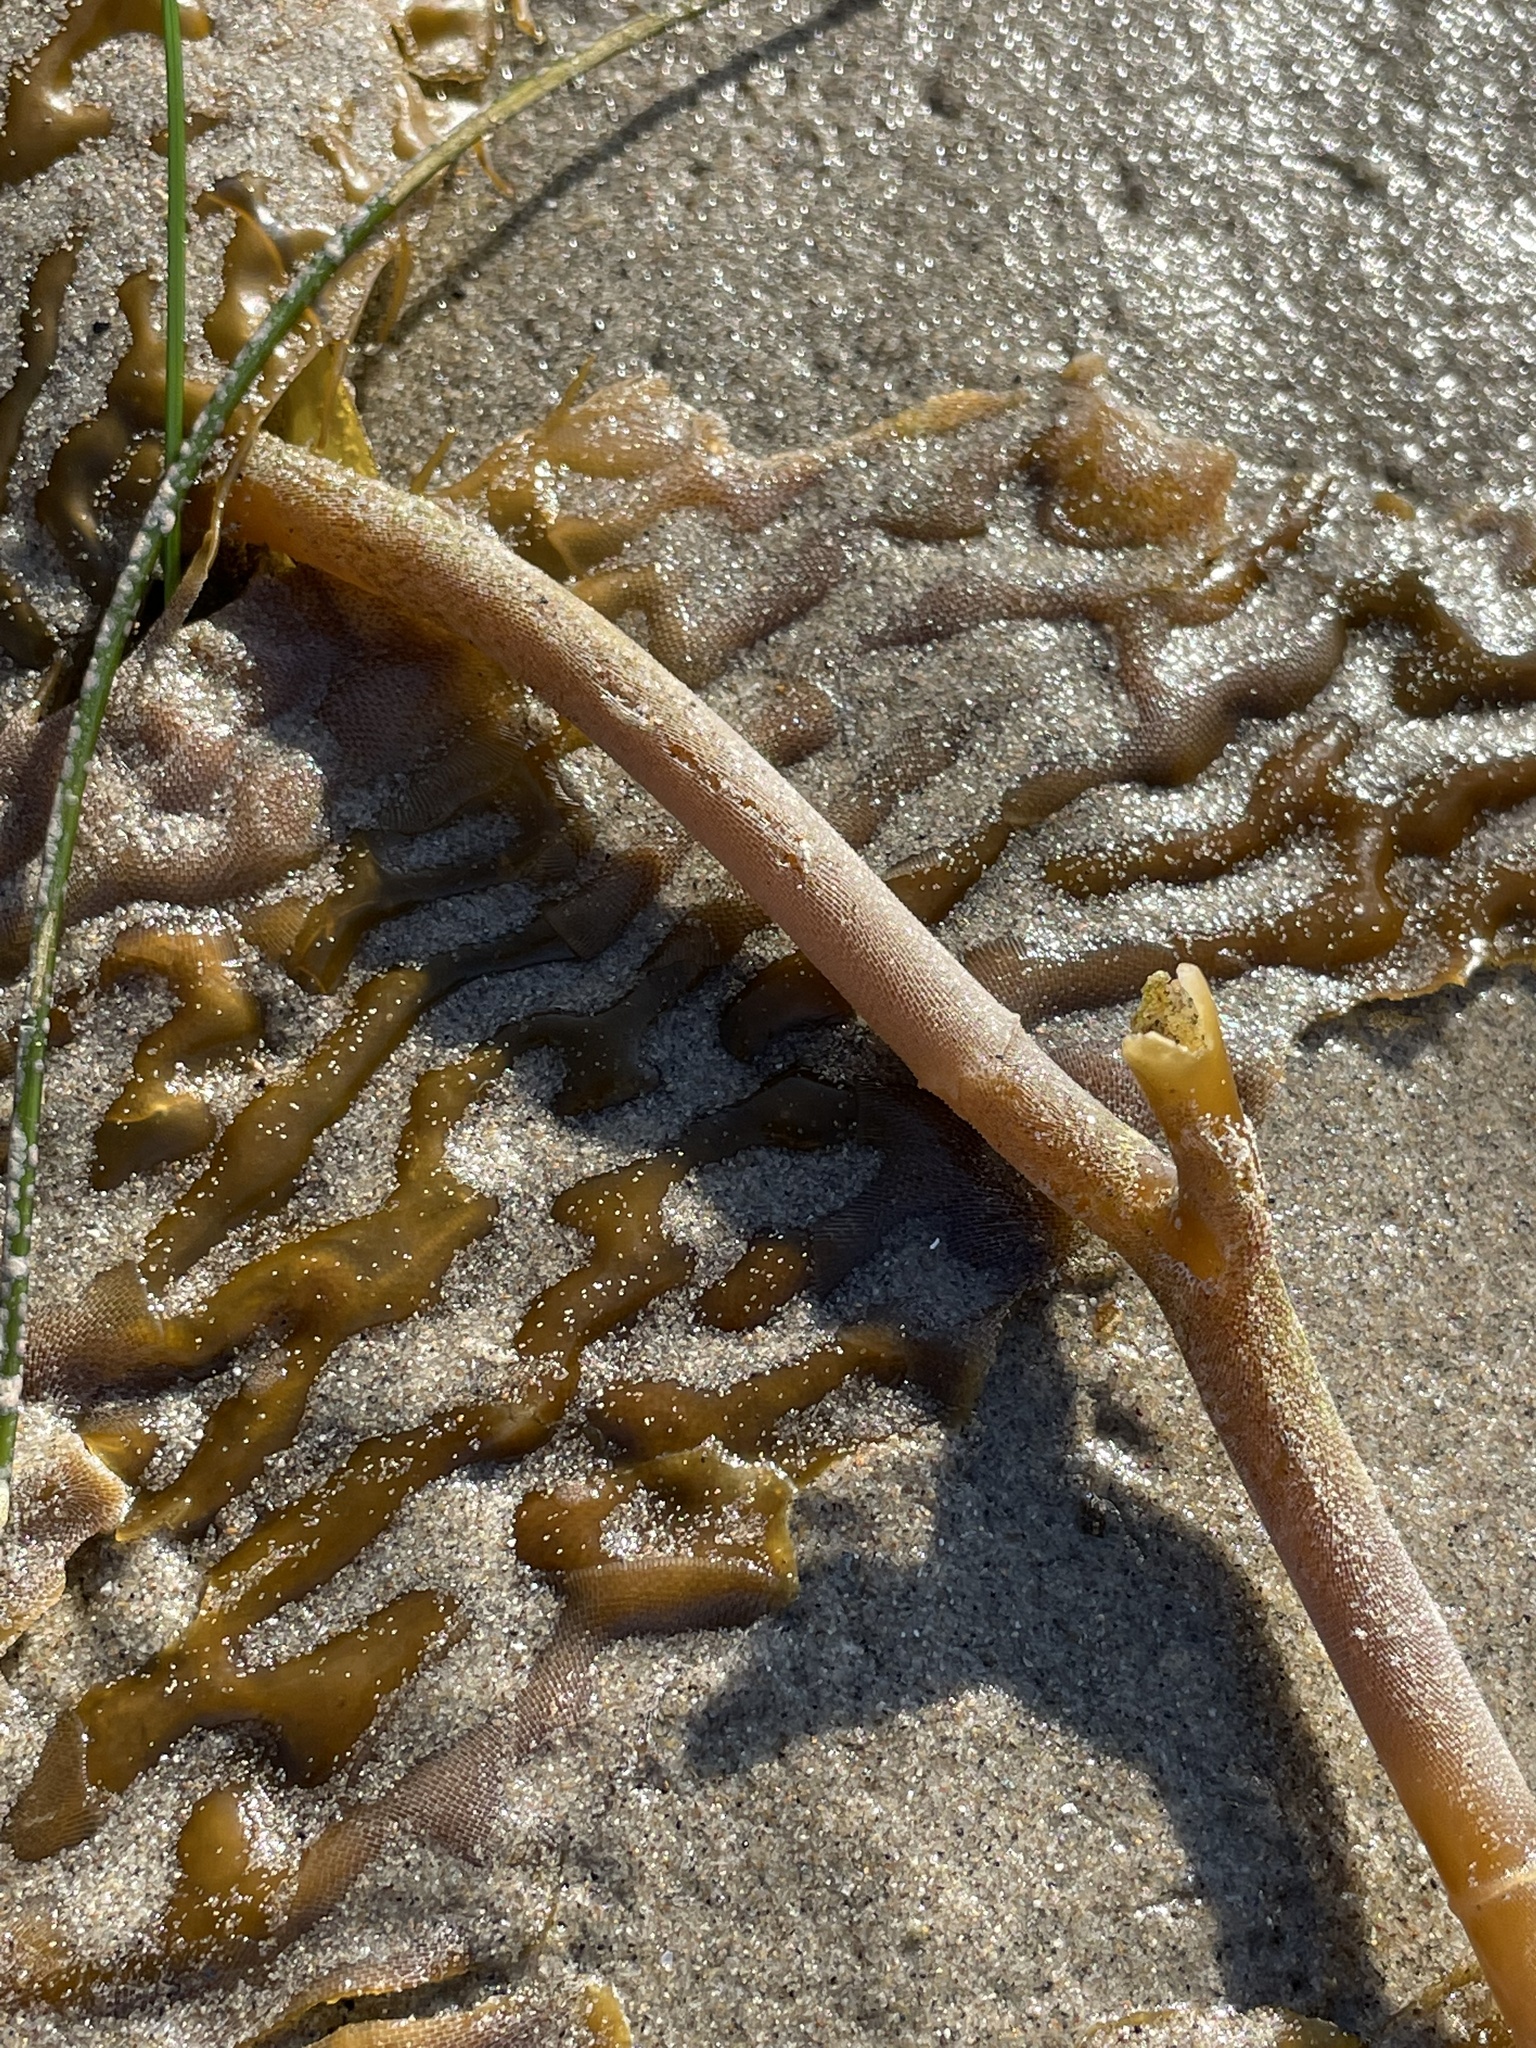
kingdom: Chromista
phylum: Ochrophyta
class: Phaeophyceae
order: Laminariales
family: Laminariaceae
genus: Macrocystis
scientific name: Macrocystis pyrifera
